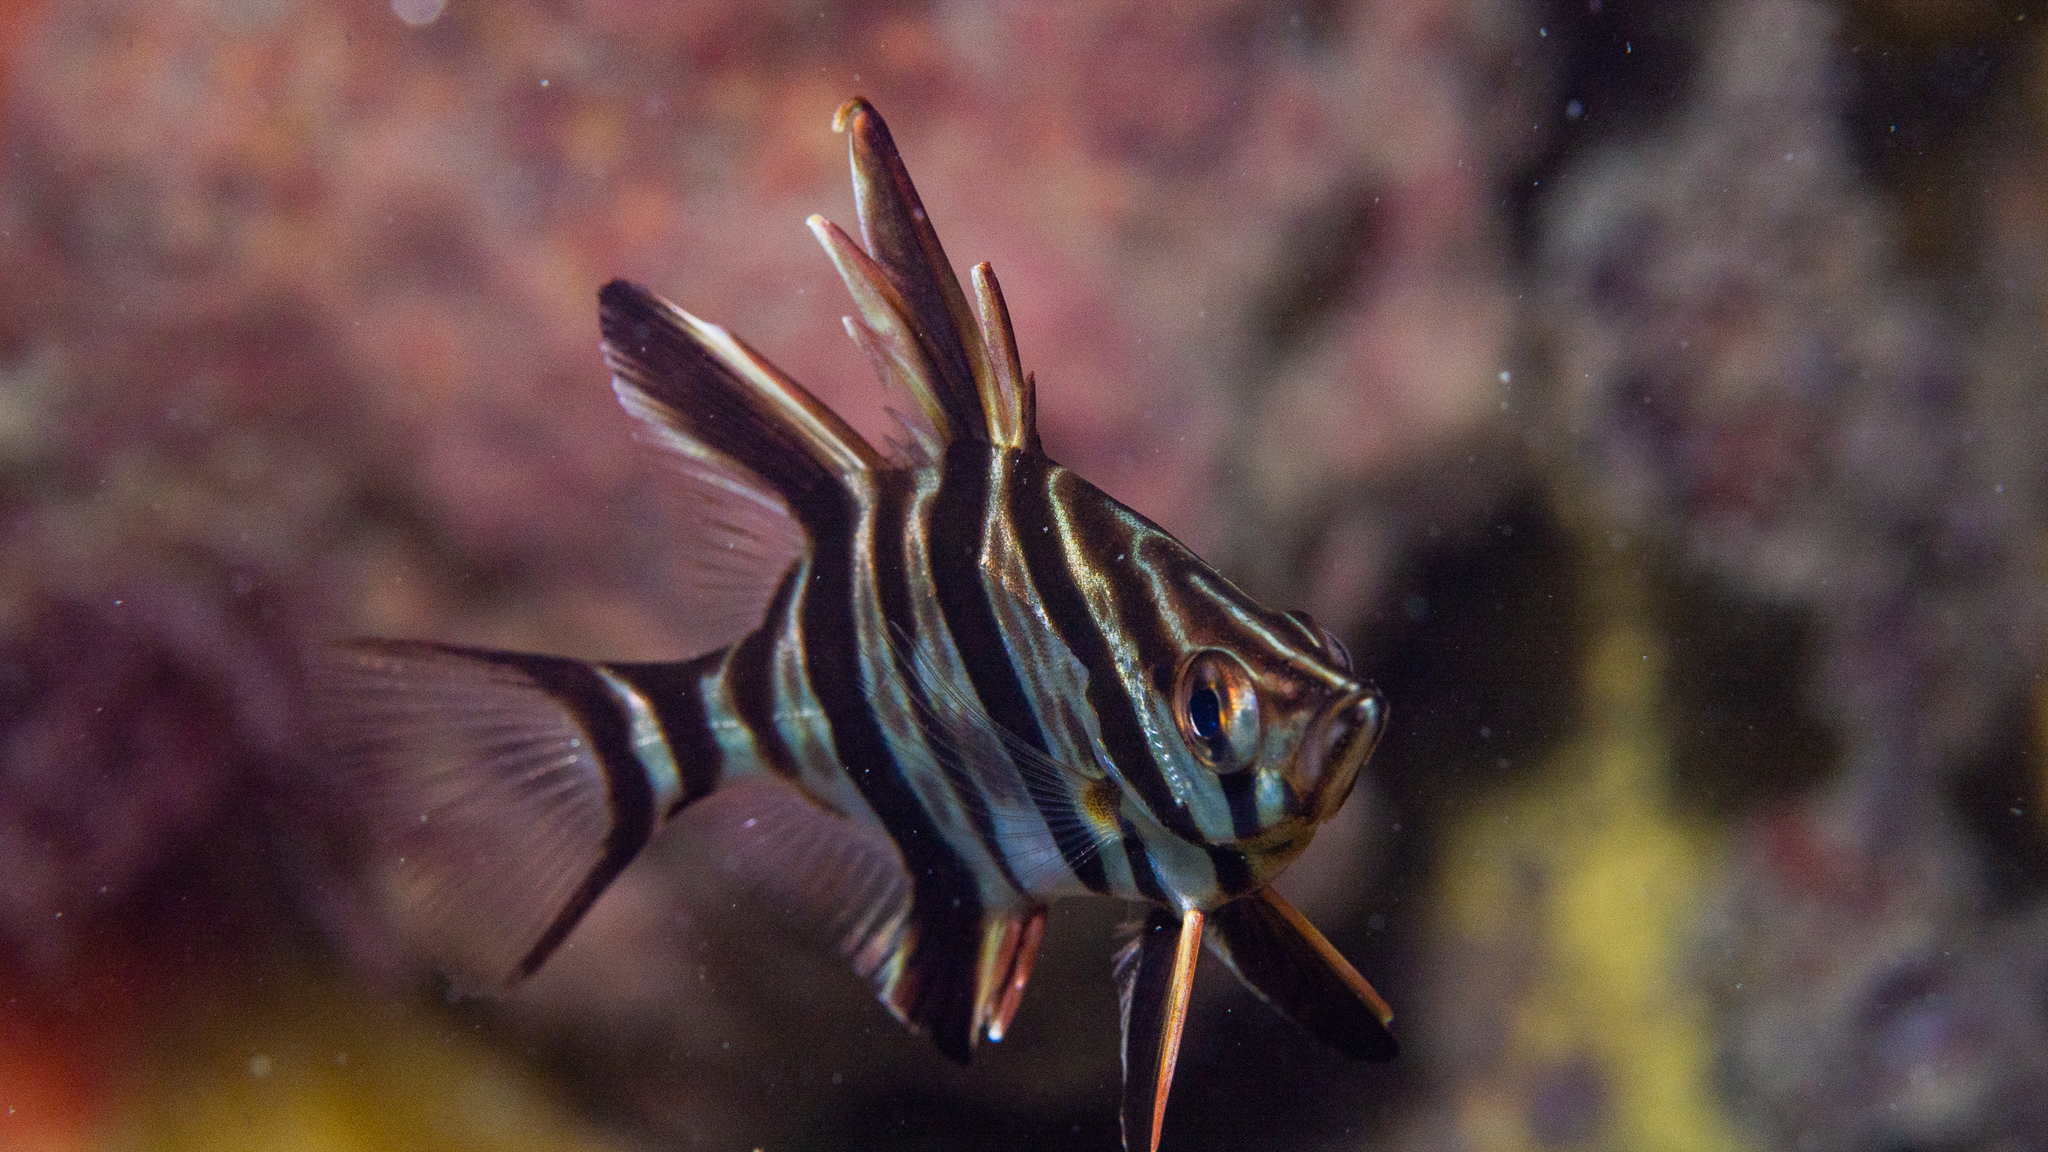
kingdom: Animalia
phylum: Chordata
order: Perciformes
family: Enoplosidae
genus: Enoplosus
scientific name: Enoplosus armatus
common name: Old wife
